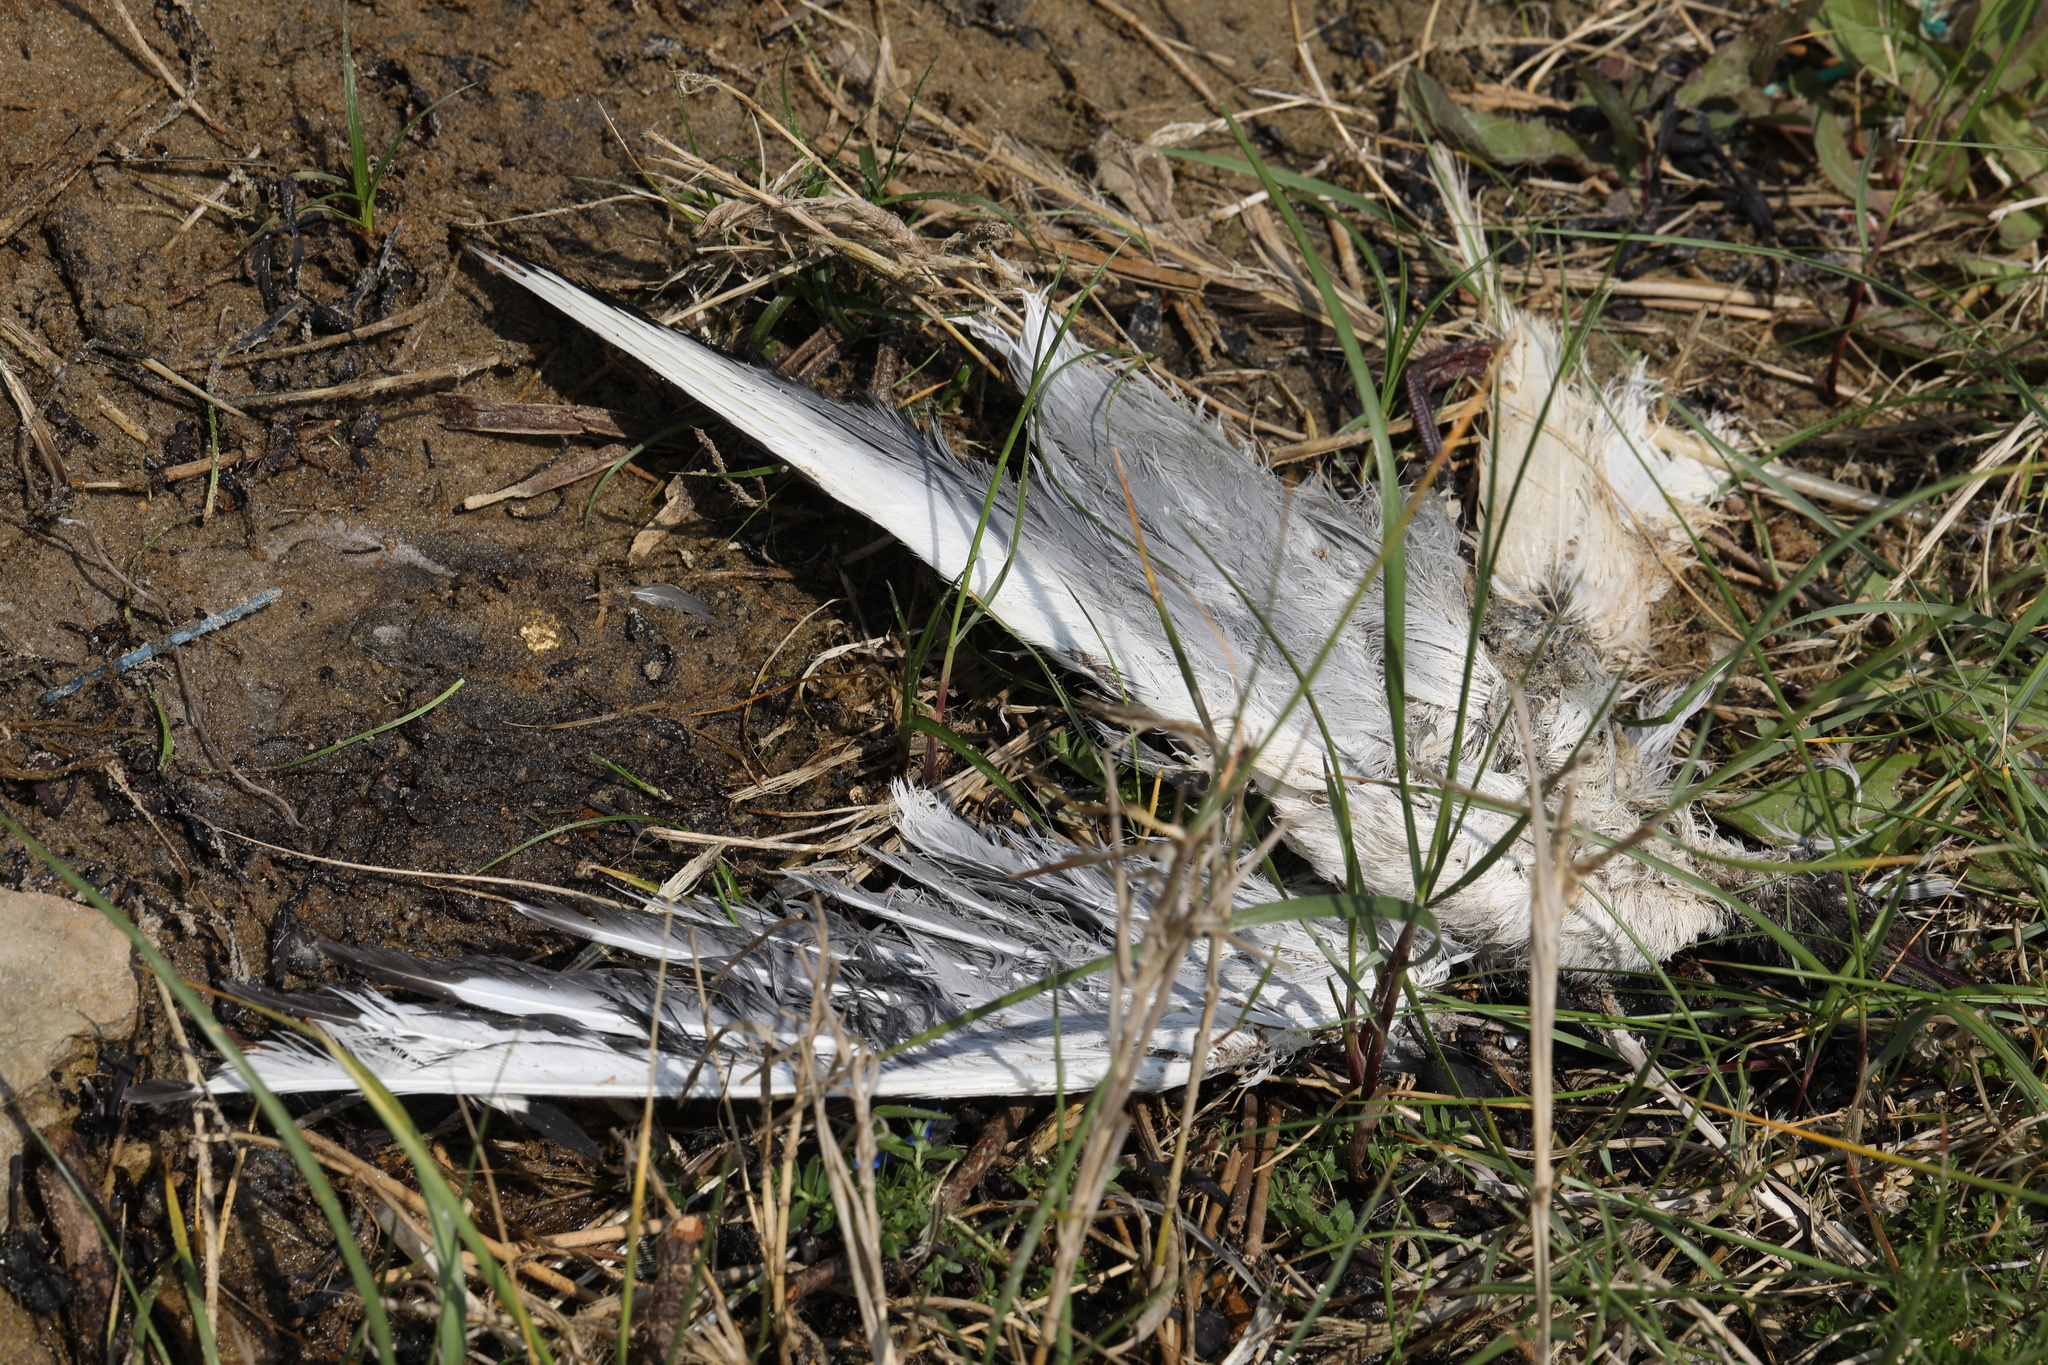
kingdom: Animalia
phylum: Chordata
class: Aves
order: Charadriiformes
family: Laridae
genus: Chroicocephalus
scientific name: Chroicocephalus ridibundus
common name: Black-headed gull
